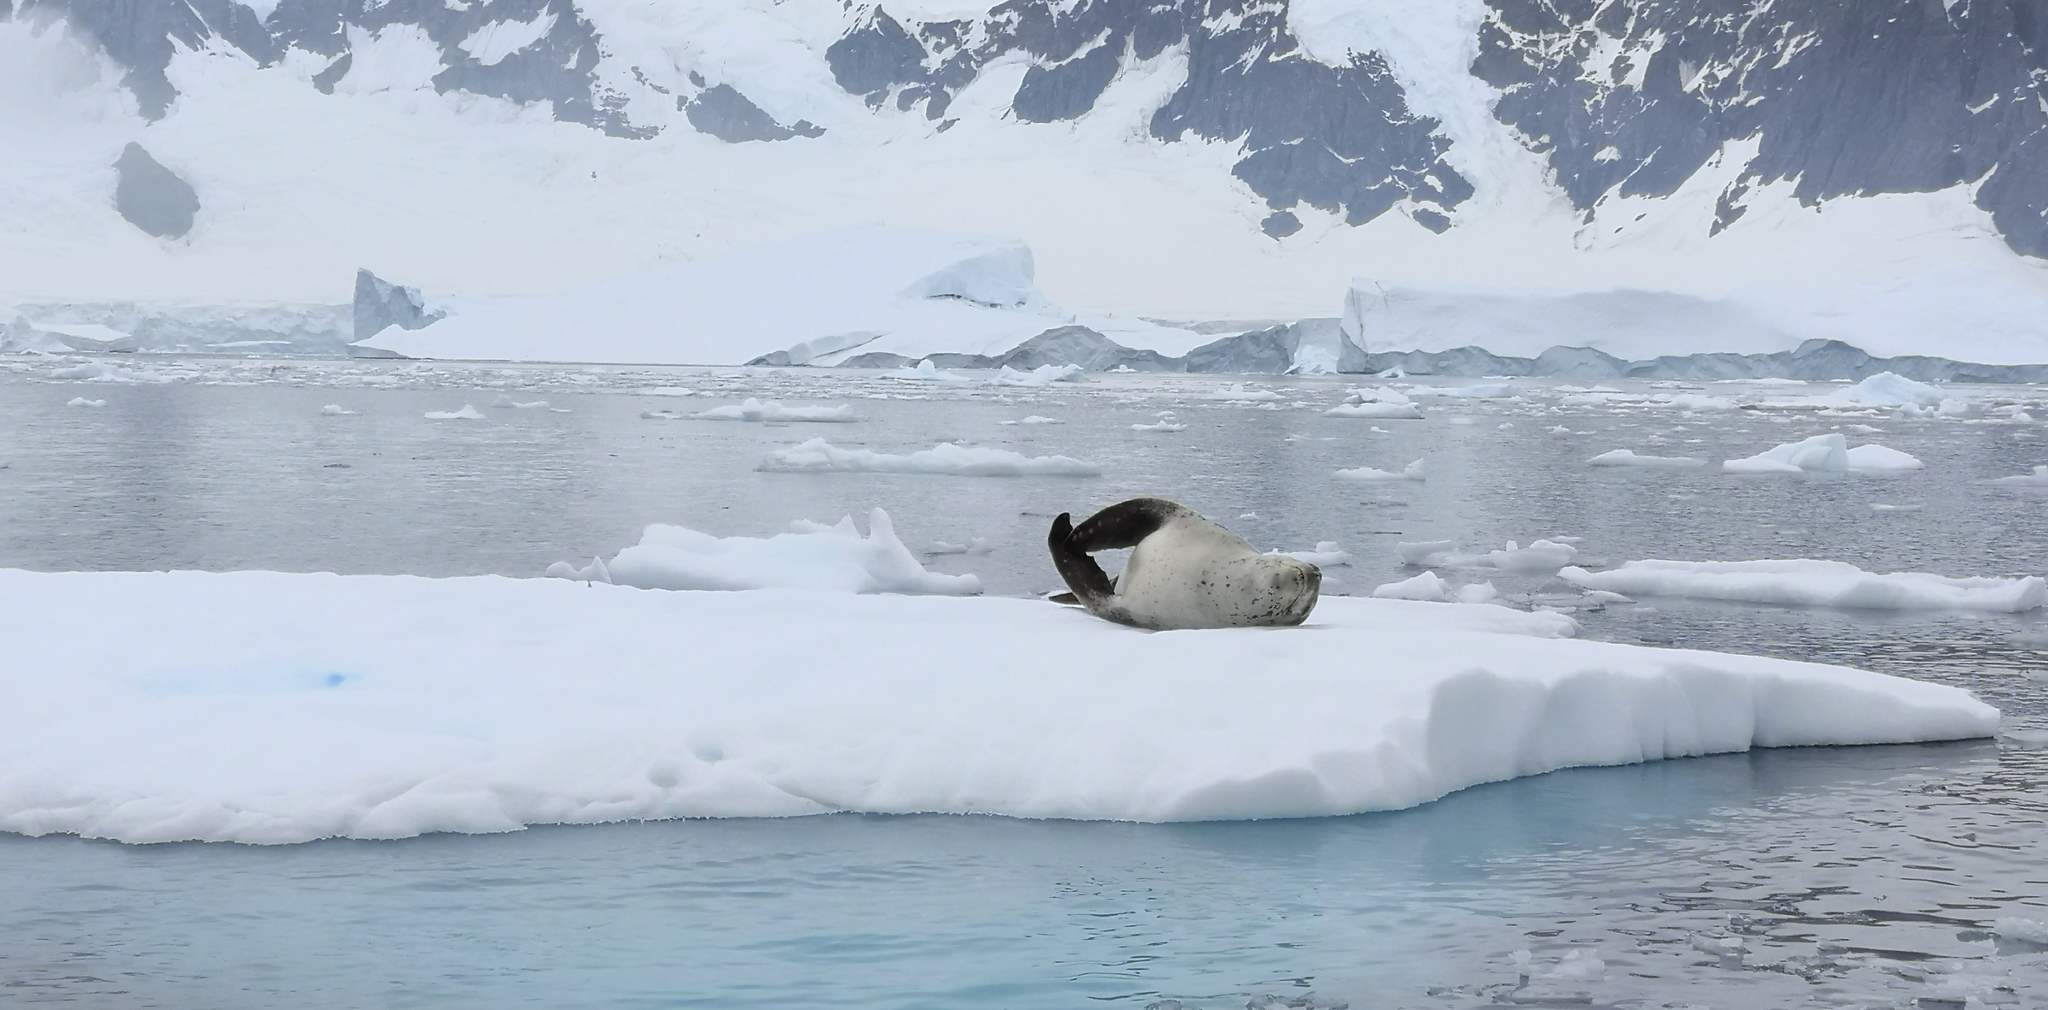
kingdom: Animalia
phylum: Chordata
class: Mammalia
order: Carnivora
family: Phocidae
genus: Hydrurga
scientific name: Hydrurga leptonyx
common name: Leopard seal
